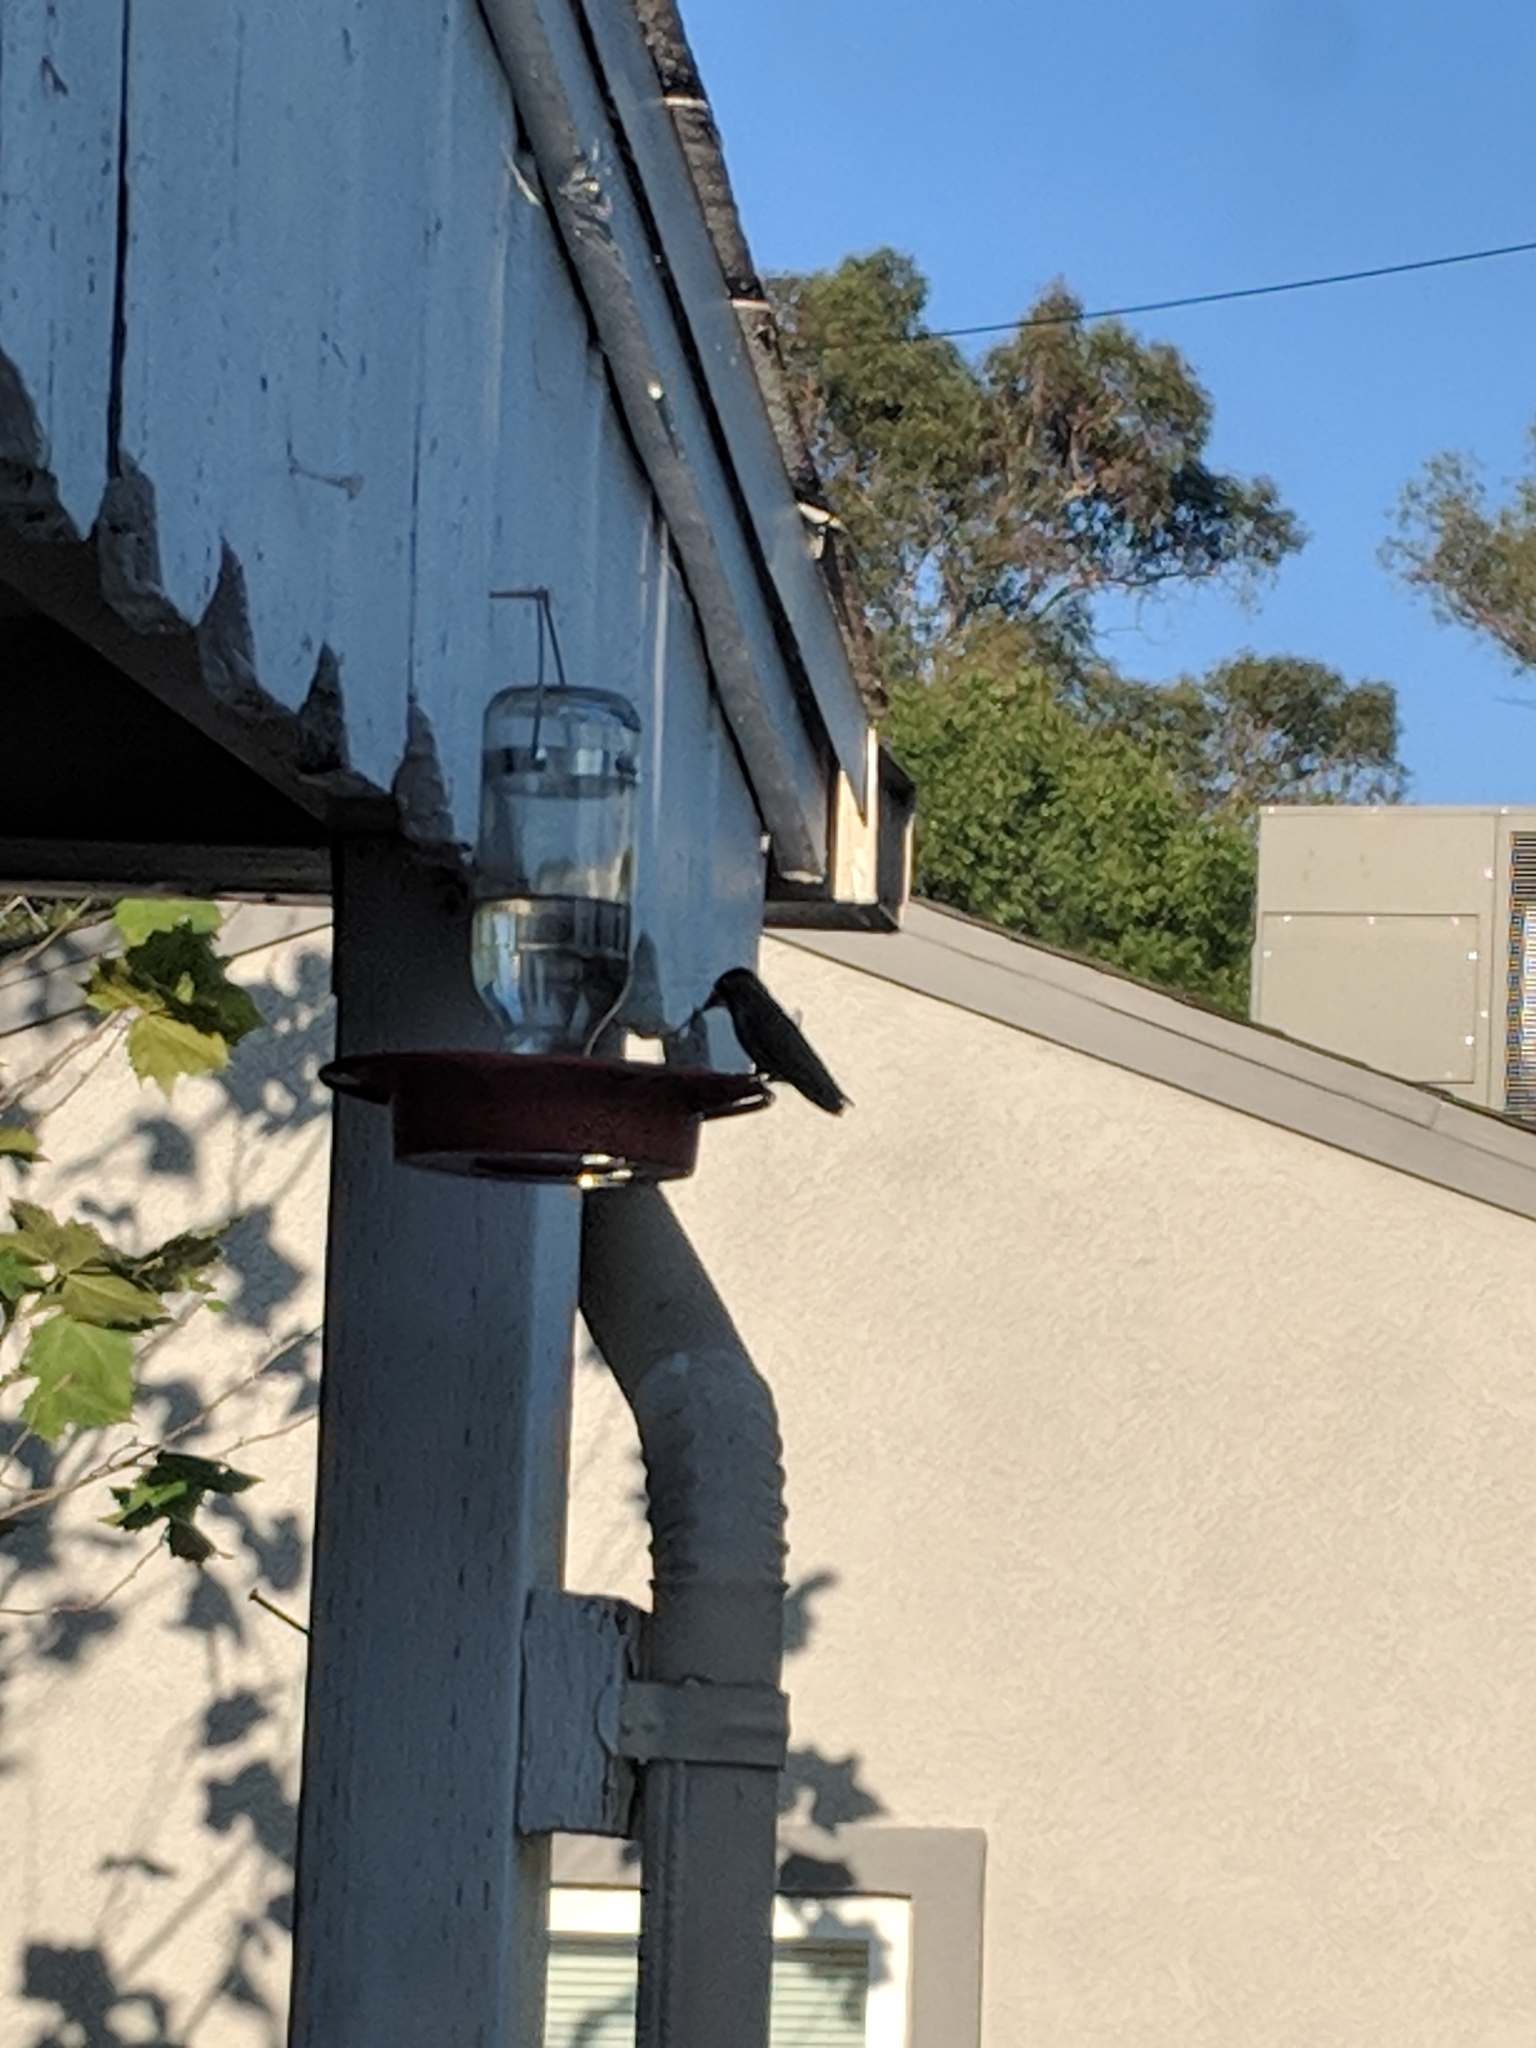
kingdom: Animalia
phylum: Chordata
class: Aves
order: Apodiformes
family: Trochilidae
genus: Calypte
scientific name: Calypte anna
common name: Anna's hummingbird
